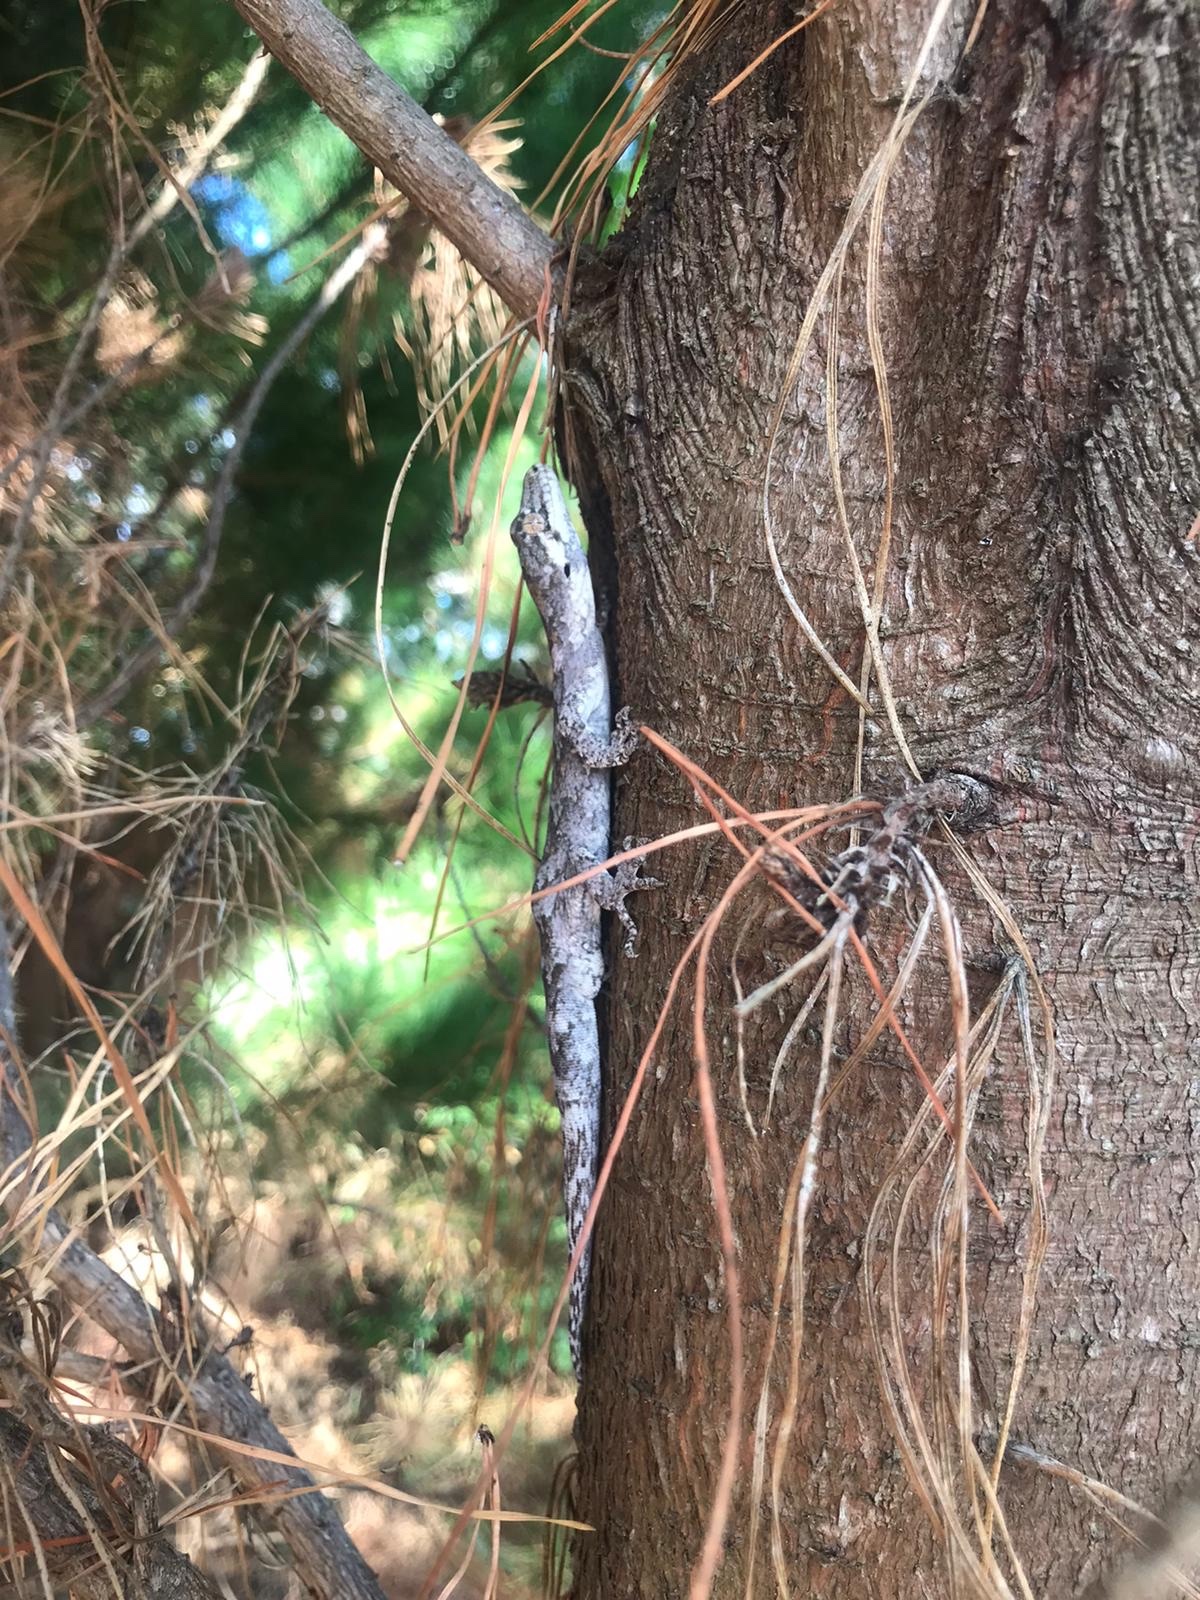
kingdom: Animalia
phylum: Chordata
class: Squamata
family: Diplodactylidae
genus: Mokopirirakau
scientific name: Mokopirirakau granulatus
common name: Forest gecko
